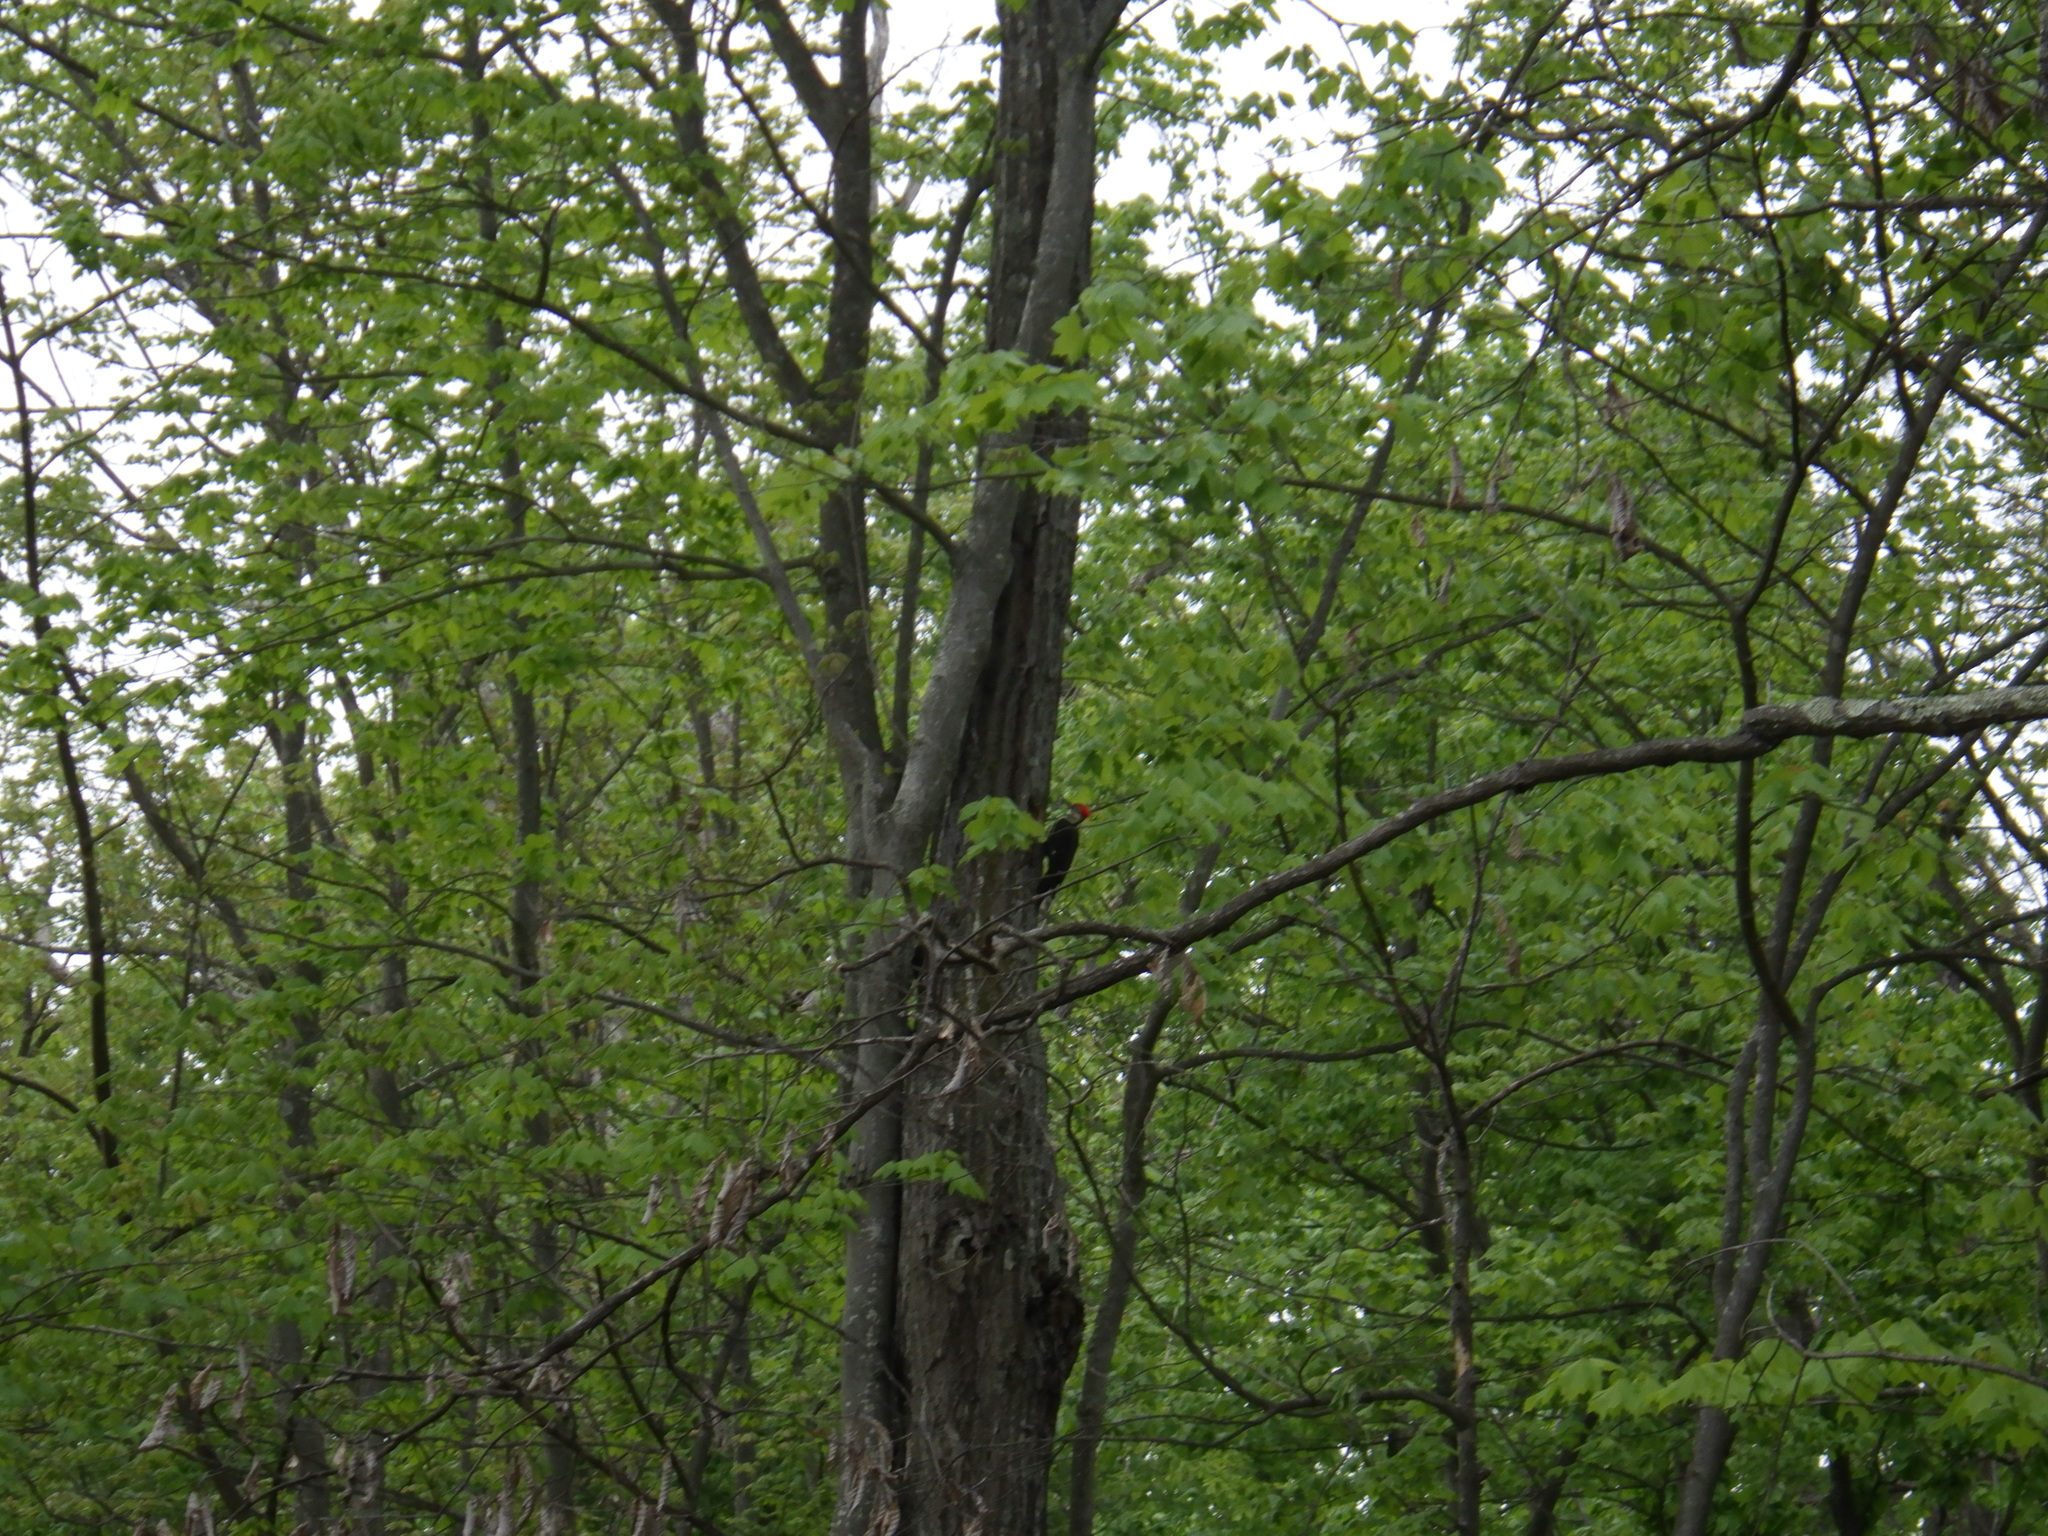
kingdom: Animalia
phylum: Chordata
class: Aves
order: Piciformes
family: Picidae
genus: Dryocopus
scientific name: Dryocopus pileatus
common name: Pileated woodpecker
